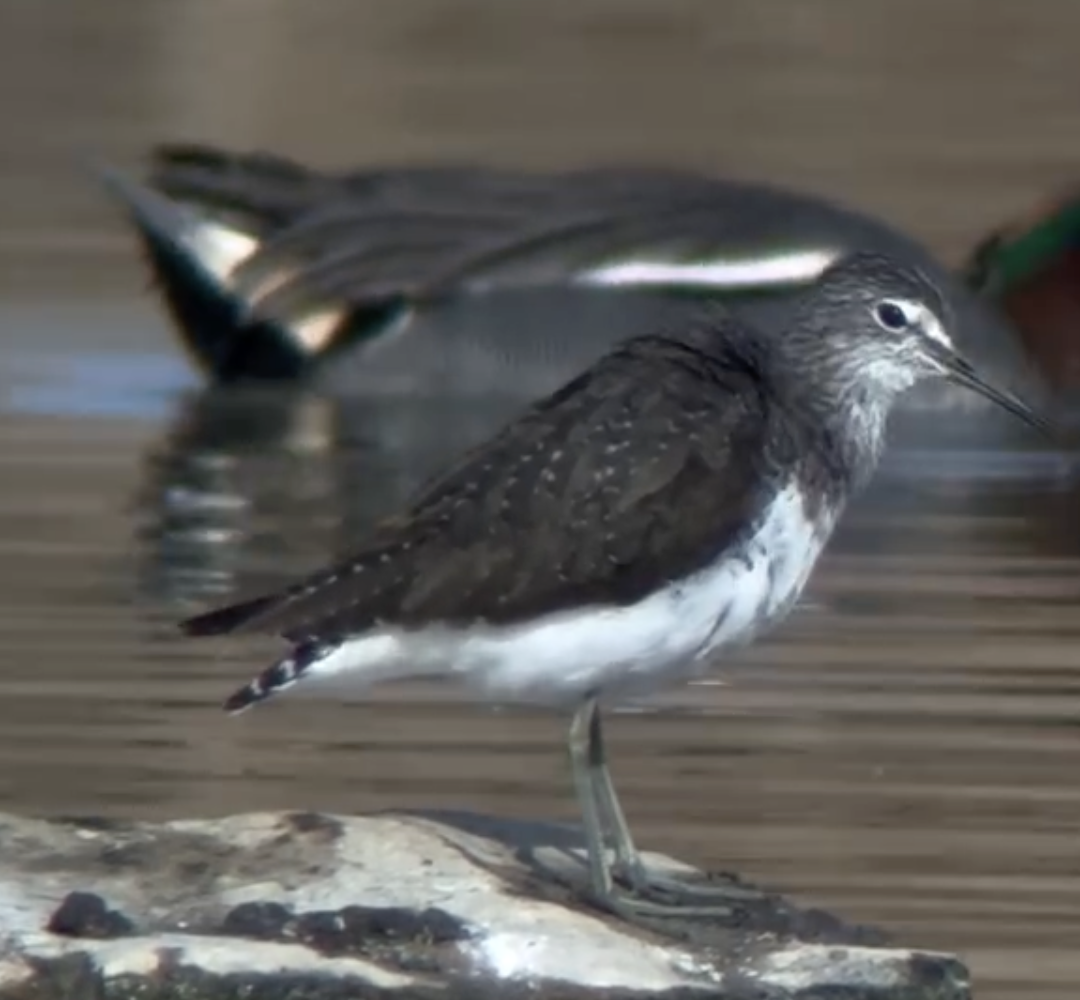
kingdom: Animalia
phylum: Chordata
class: Aves
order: Charadriiformes
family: Scolopacidae
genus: Tringa
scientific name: Tringa ochropus
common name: Green sandpiper
